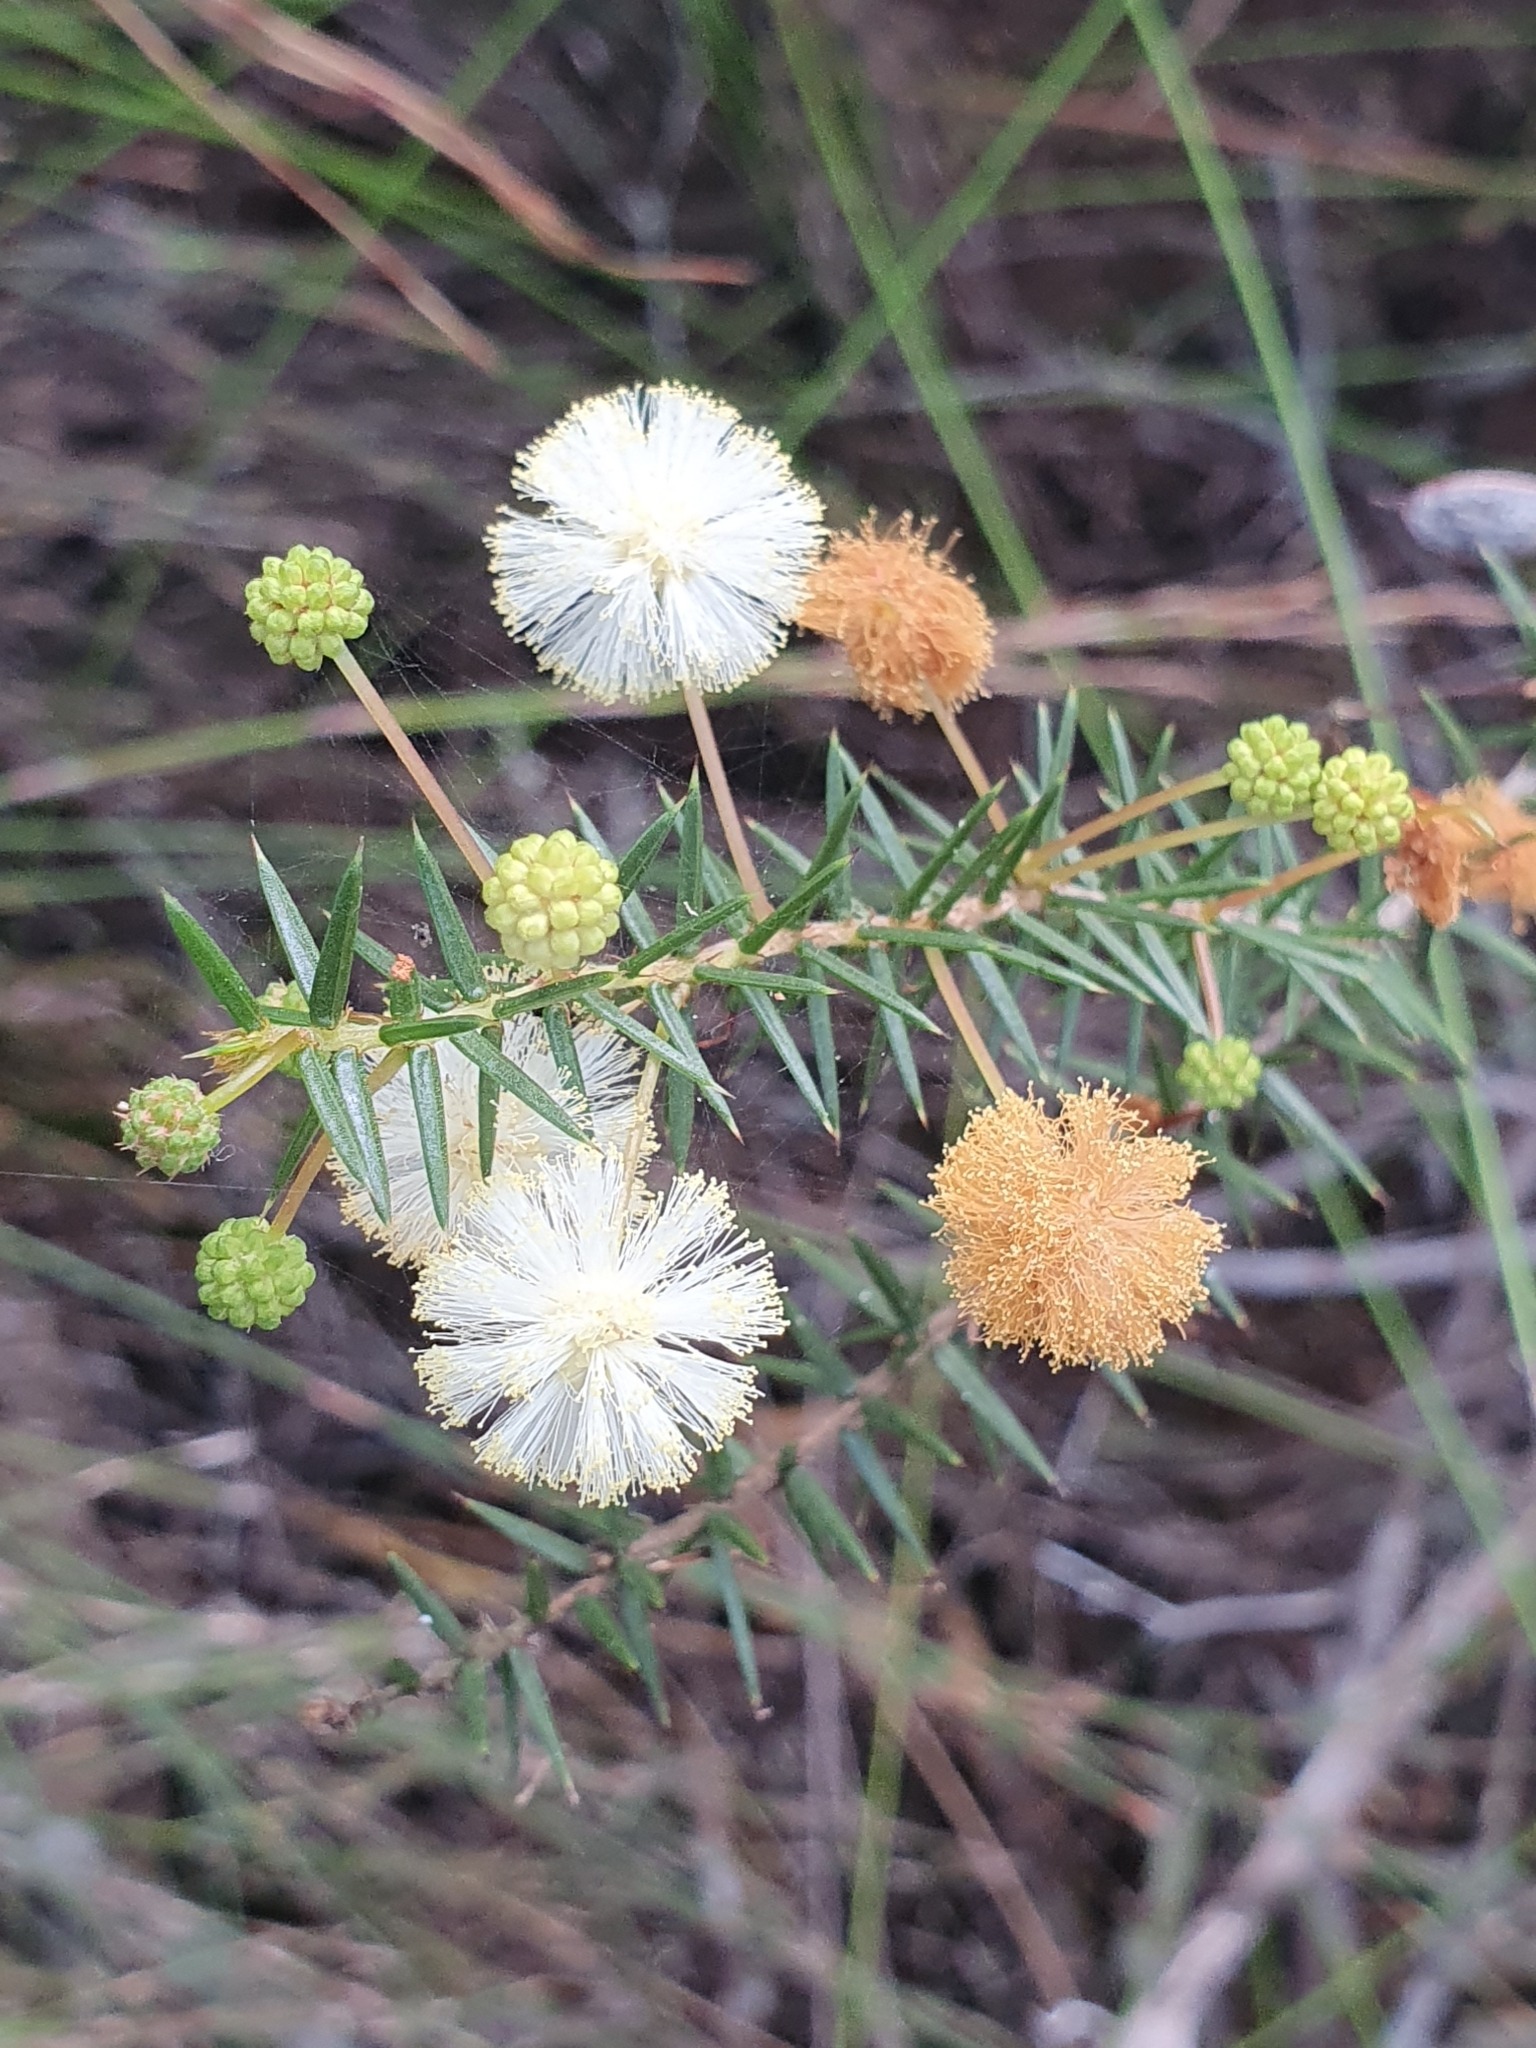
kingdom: Plantae
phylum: Tracheophyta
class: Magnoliopsida
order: Fabales
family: Fabaceae
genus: Acacia
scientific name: Acacia ulicifolia
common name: Juniper wattle
